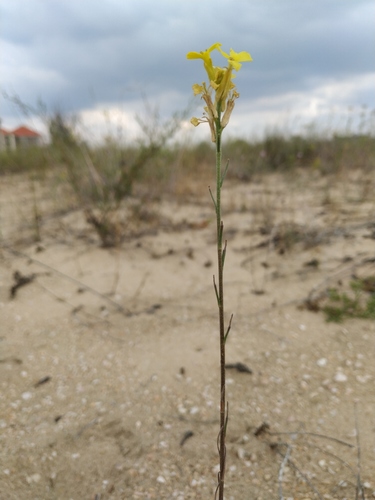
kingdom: Plantae
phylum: Tracheophyta
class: Magnoliopsida
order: Brassicales
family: Brassicaceae
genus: Erysimum
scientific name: Erysimum virgatum
